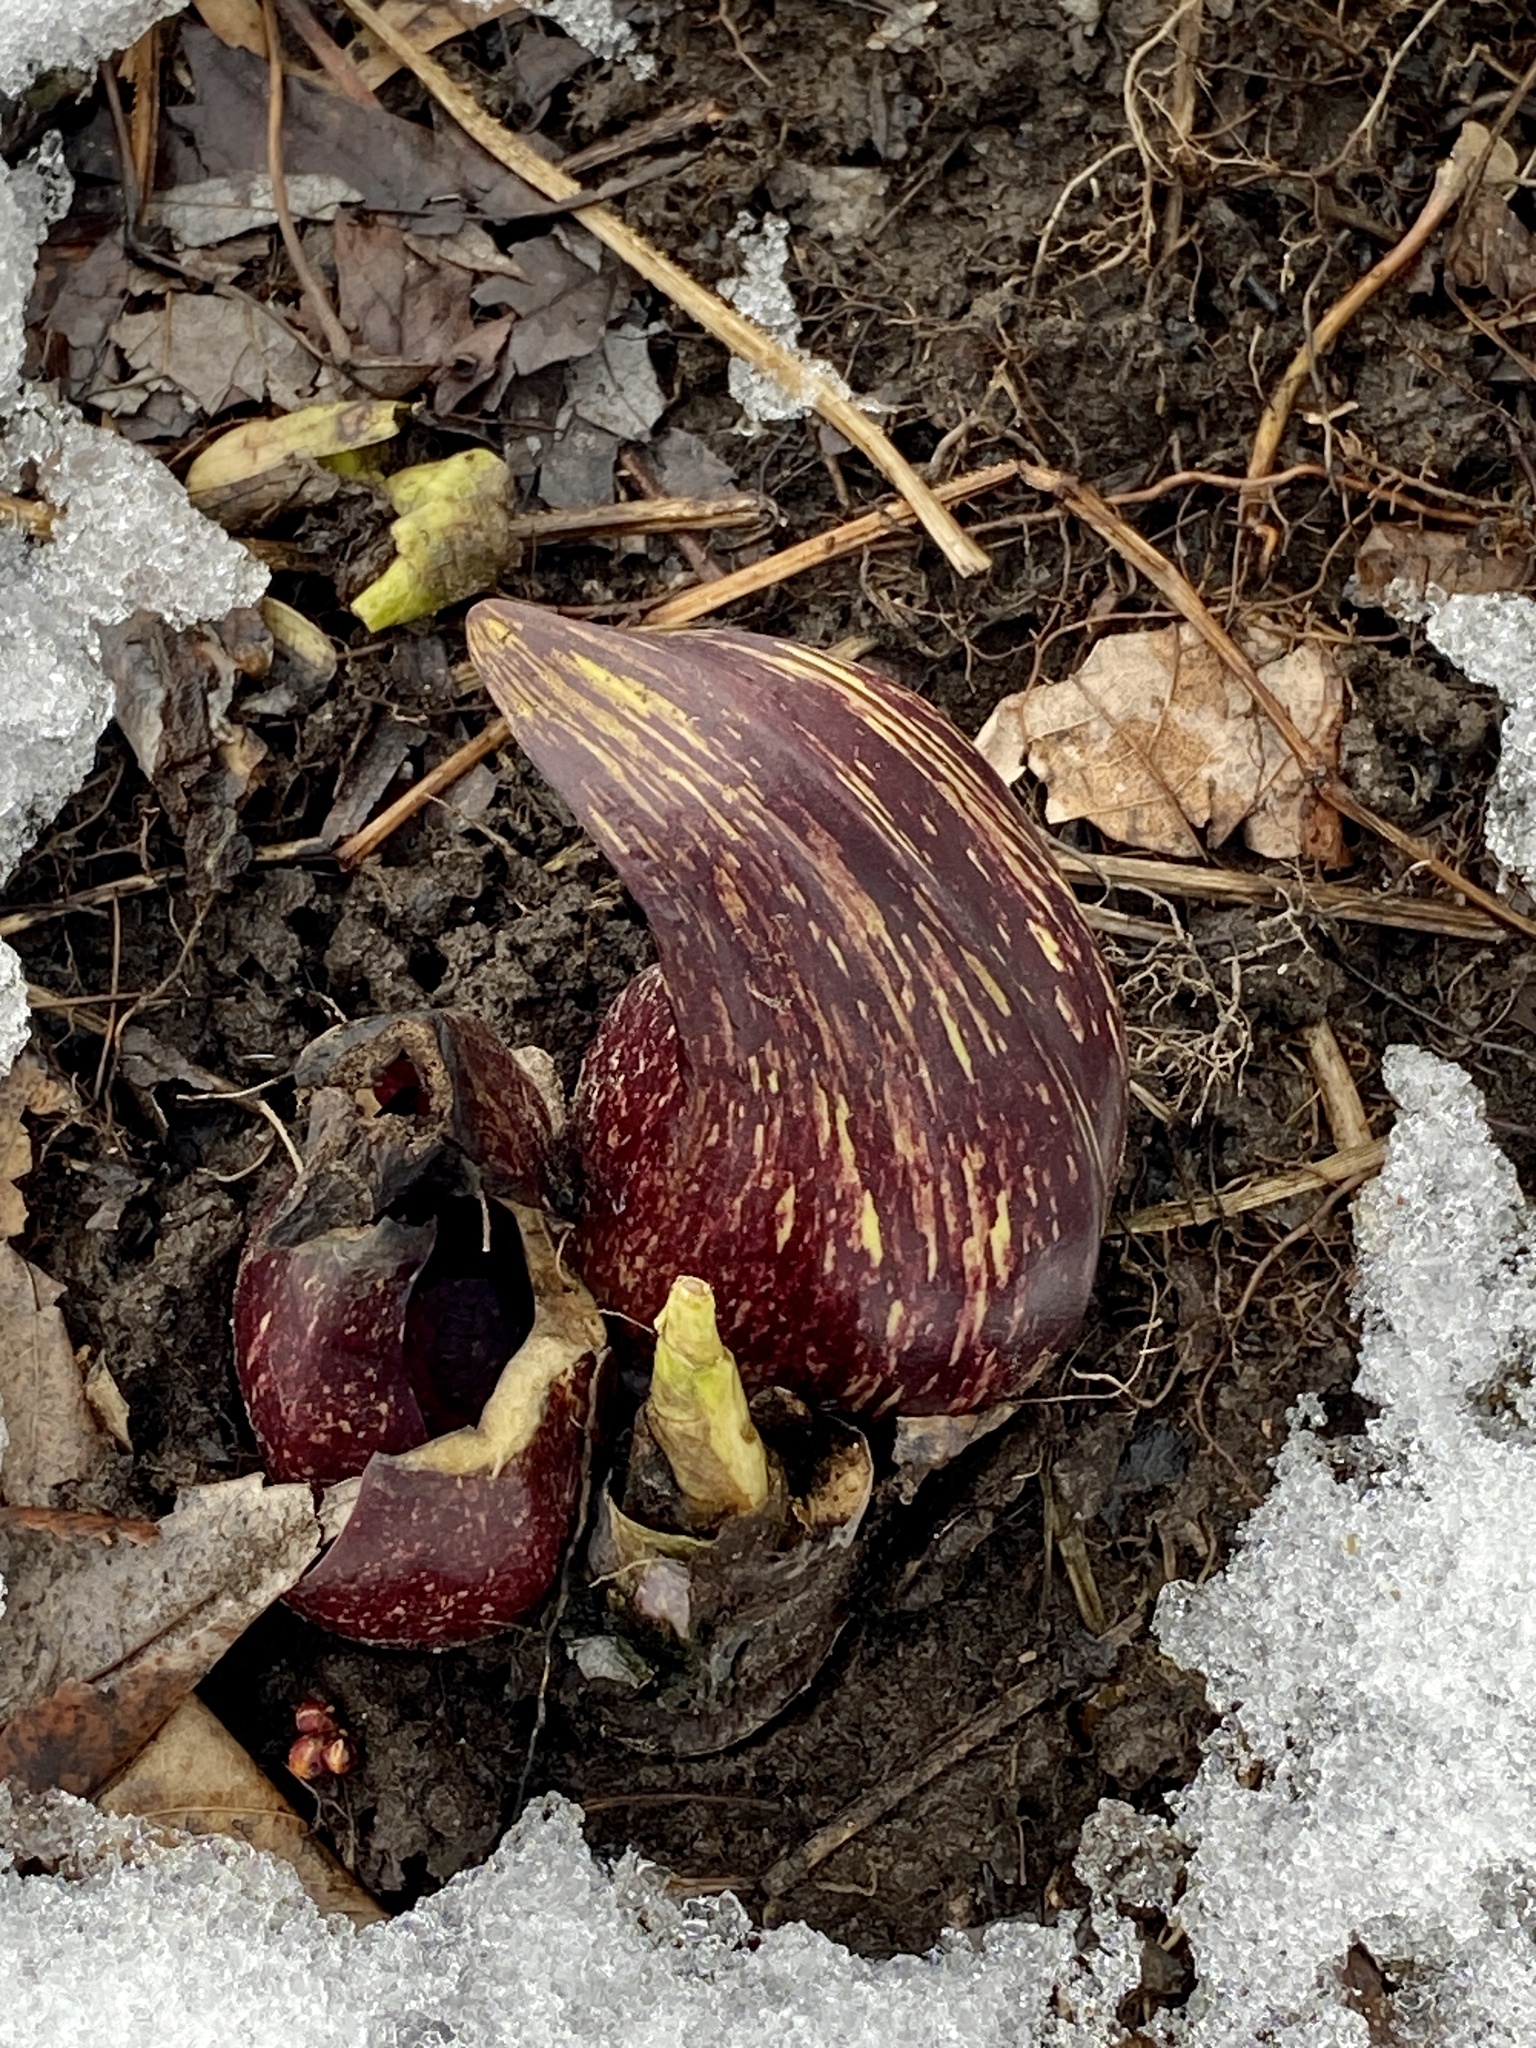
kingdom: Plantae
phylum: Tracheophyta
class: Liliopsida
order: Alismatales
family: Araceae
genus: Symplocarpus
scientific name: Symplocarpus foetidus
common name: Eastern skunk cabbage
